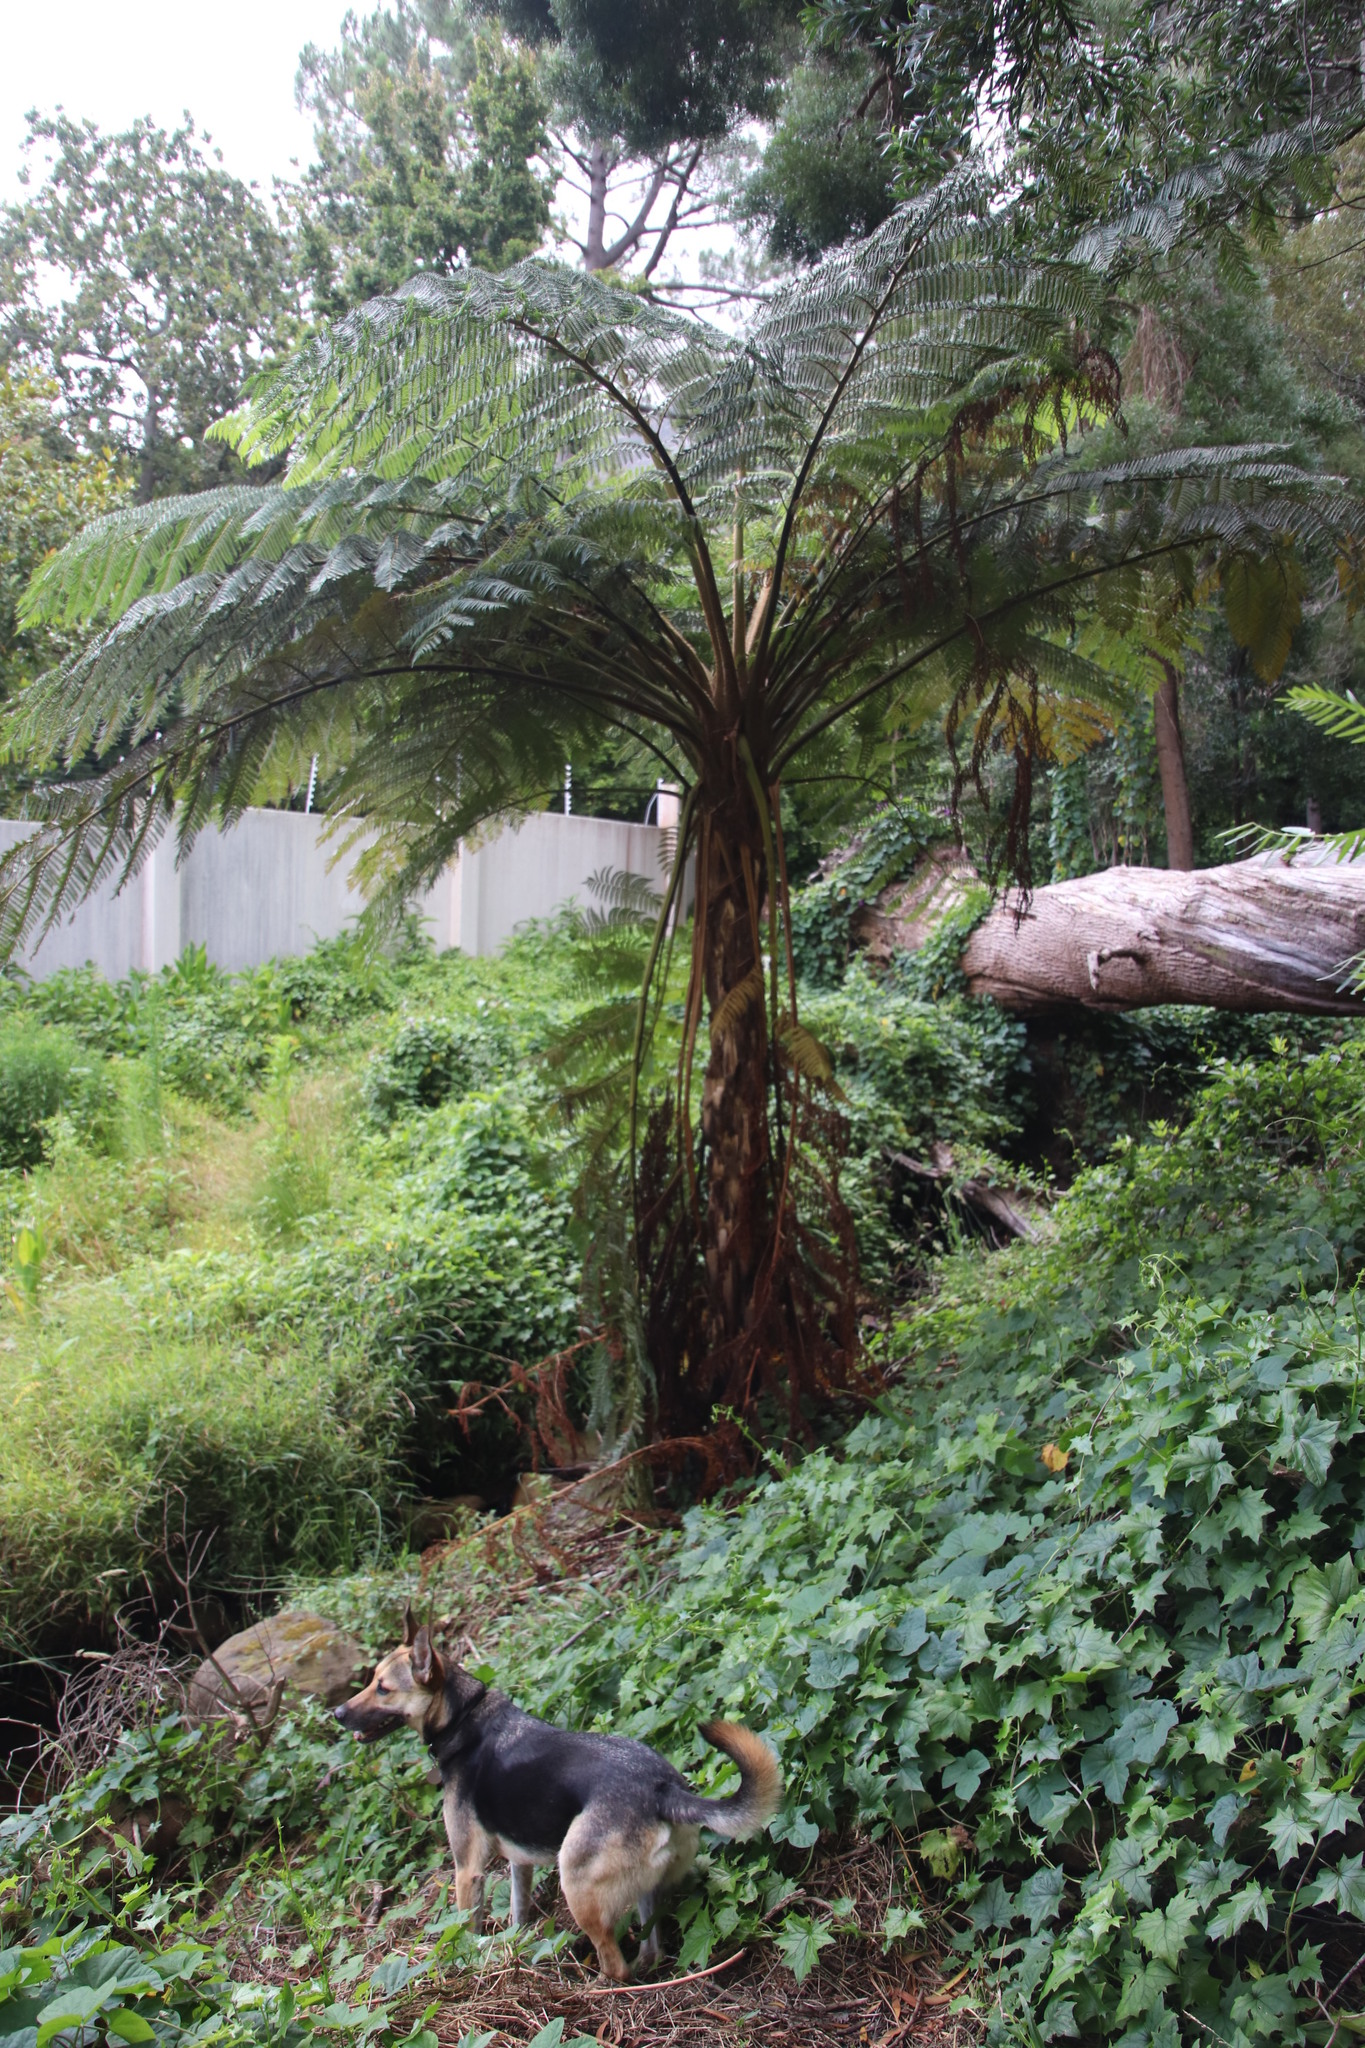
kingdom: Plantae
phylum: Tracheophyta
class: Polypodiopsida
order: Cyatheales
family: Cyatheaceae
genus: Sphaeropteris
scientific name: Sphaeropteris cooperi
